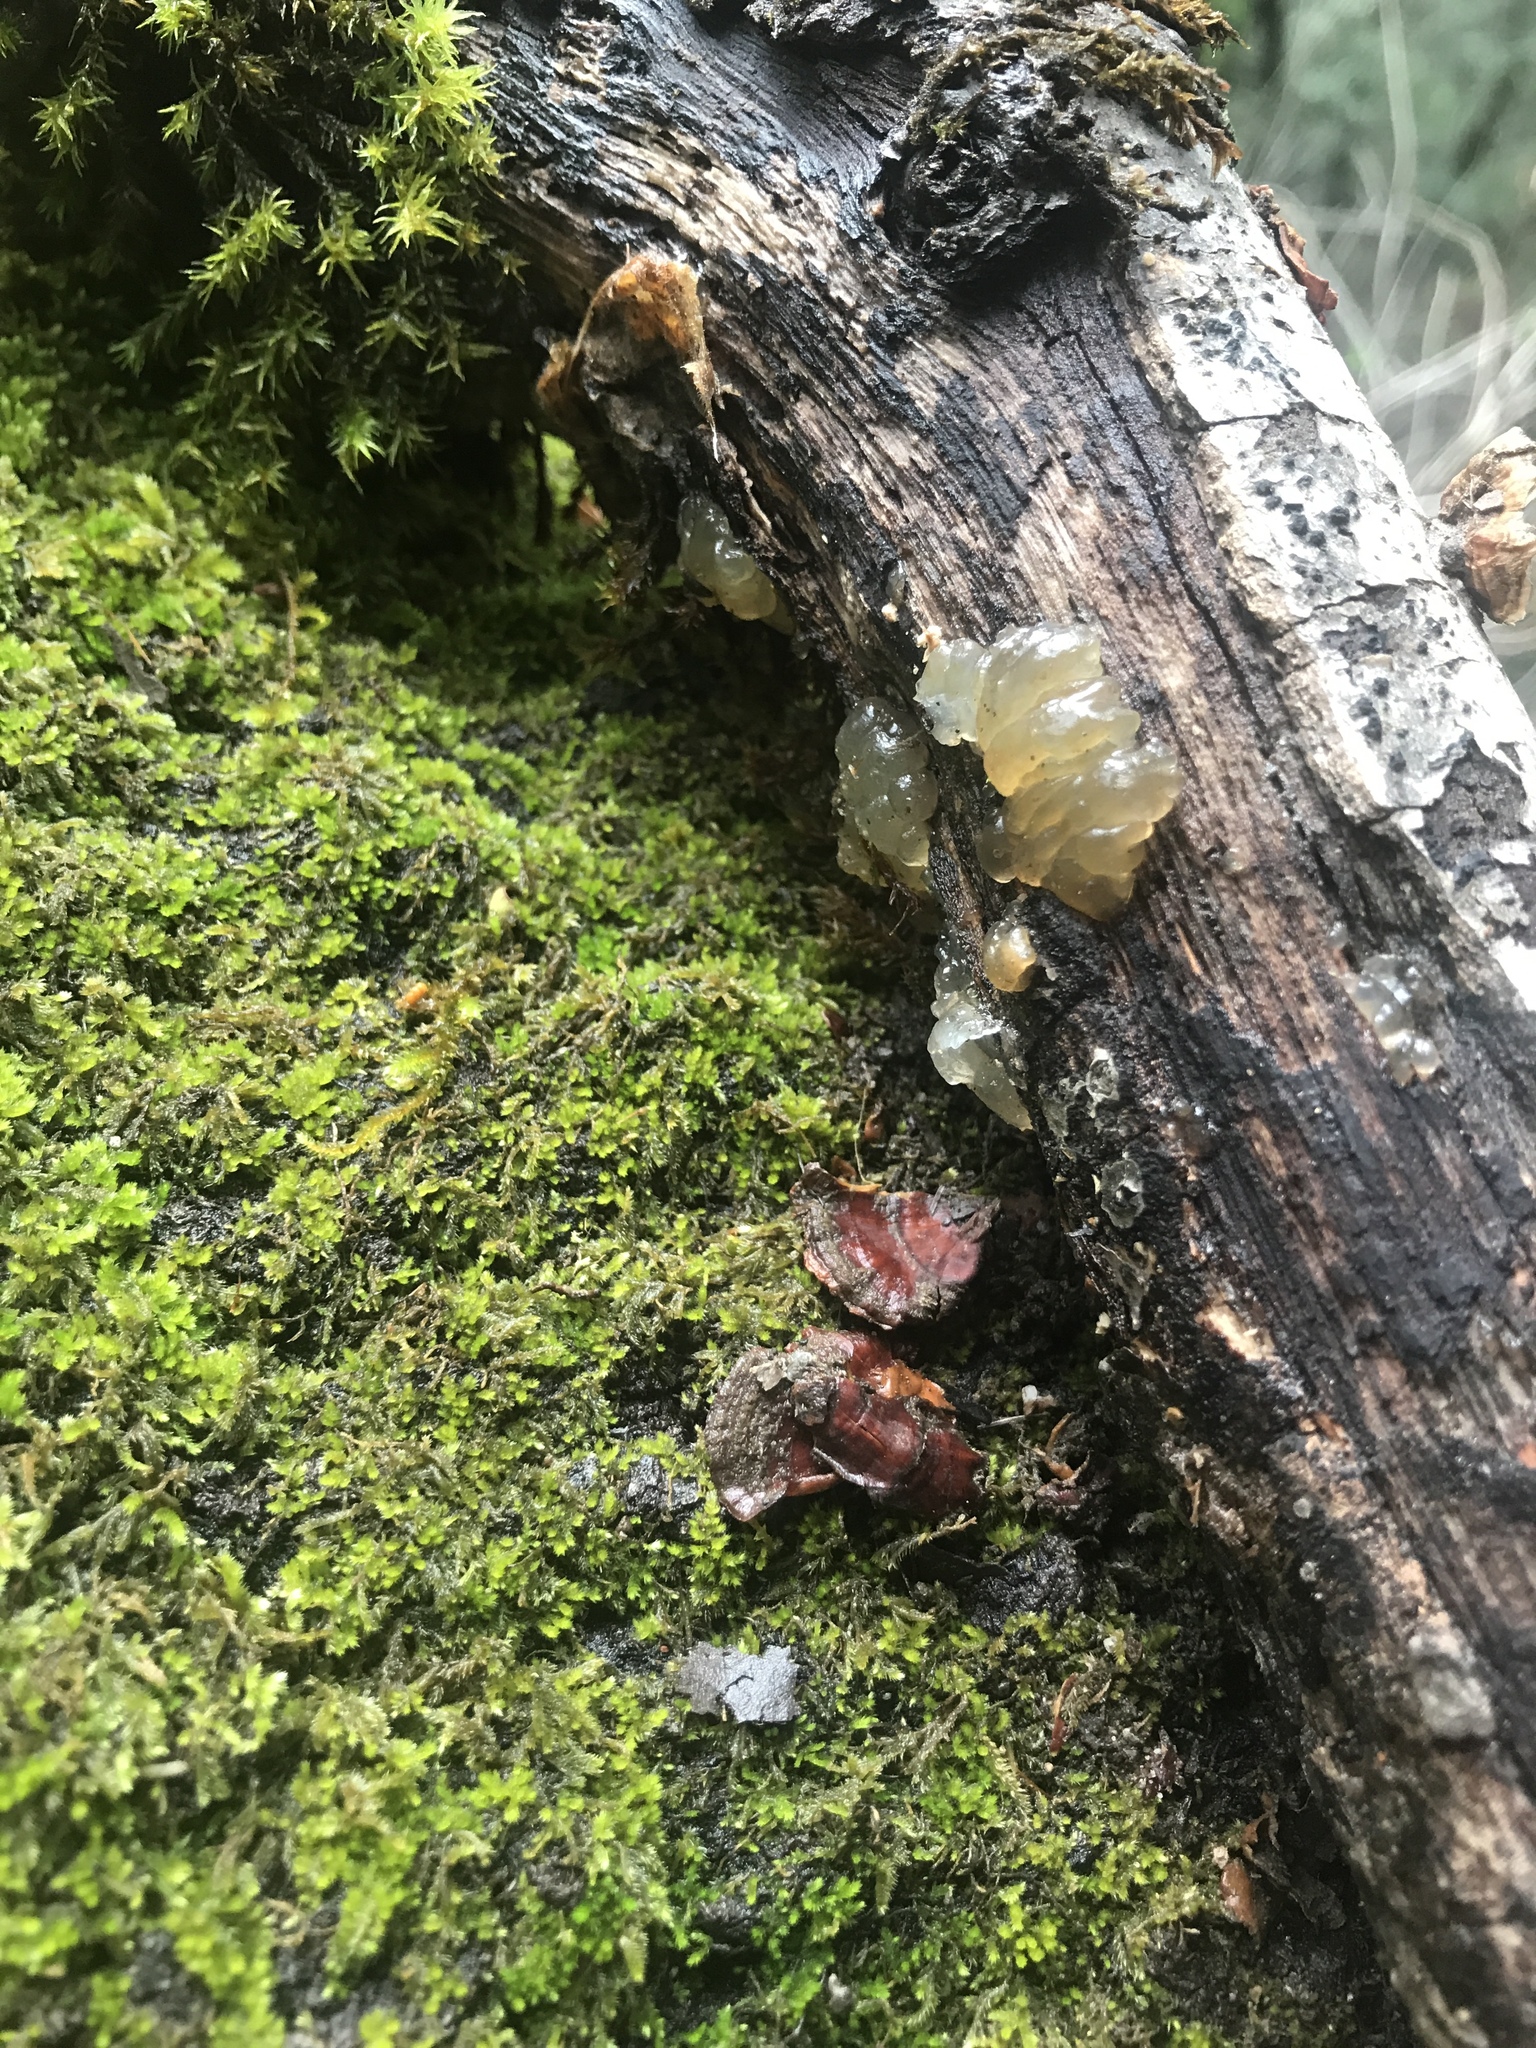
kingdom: Fungi
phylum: Basidiomycota
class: Agaricomycetes
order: Auriculariales
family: Hyaloriaceae
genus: Myxarium
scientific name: Myxarium nucleatum
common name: Crystal brain fungus
